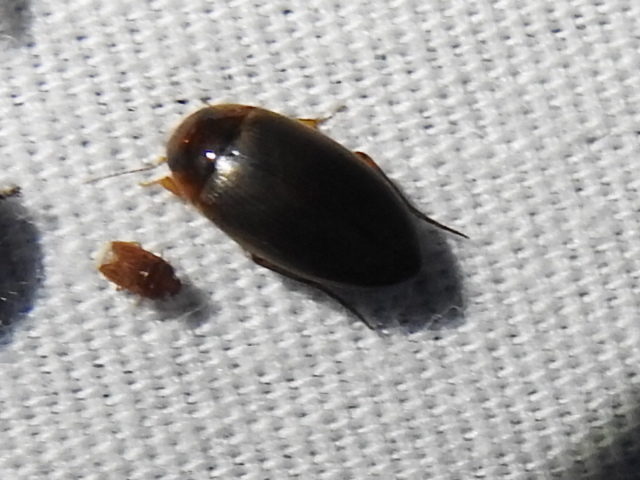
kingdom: Animalia
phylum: Arthropoda
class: Insecta
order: Coleoptera
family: Dytiscidae
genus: Copelatus
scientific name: Copelatus chevrolati
